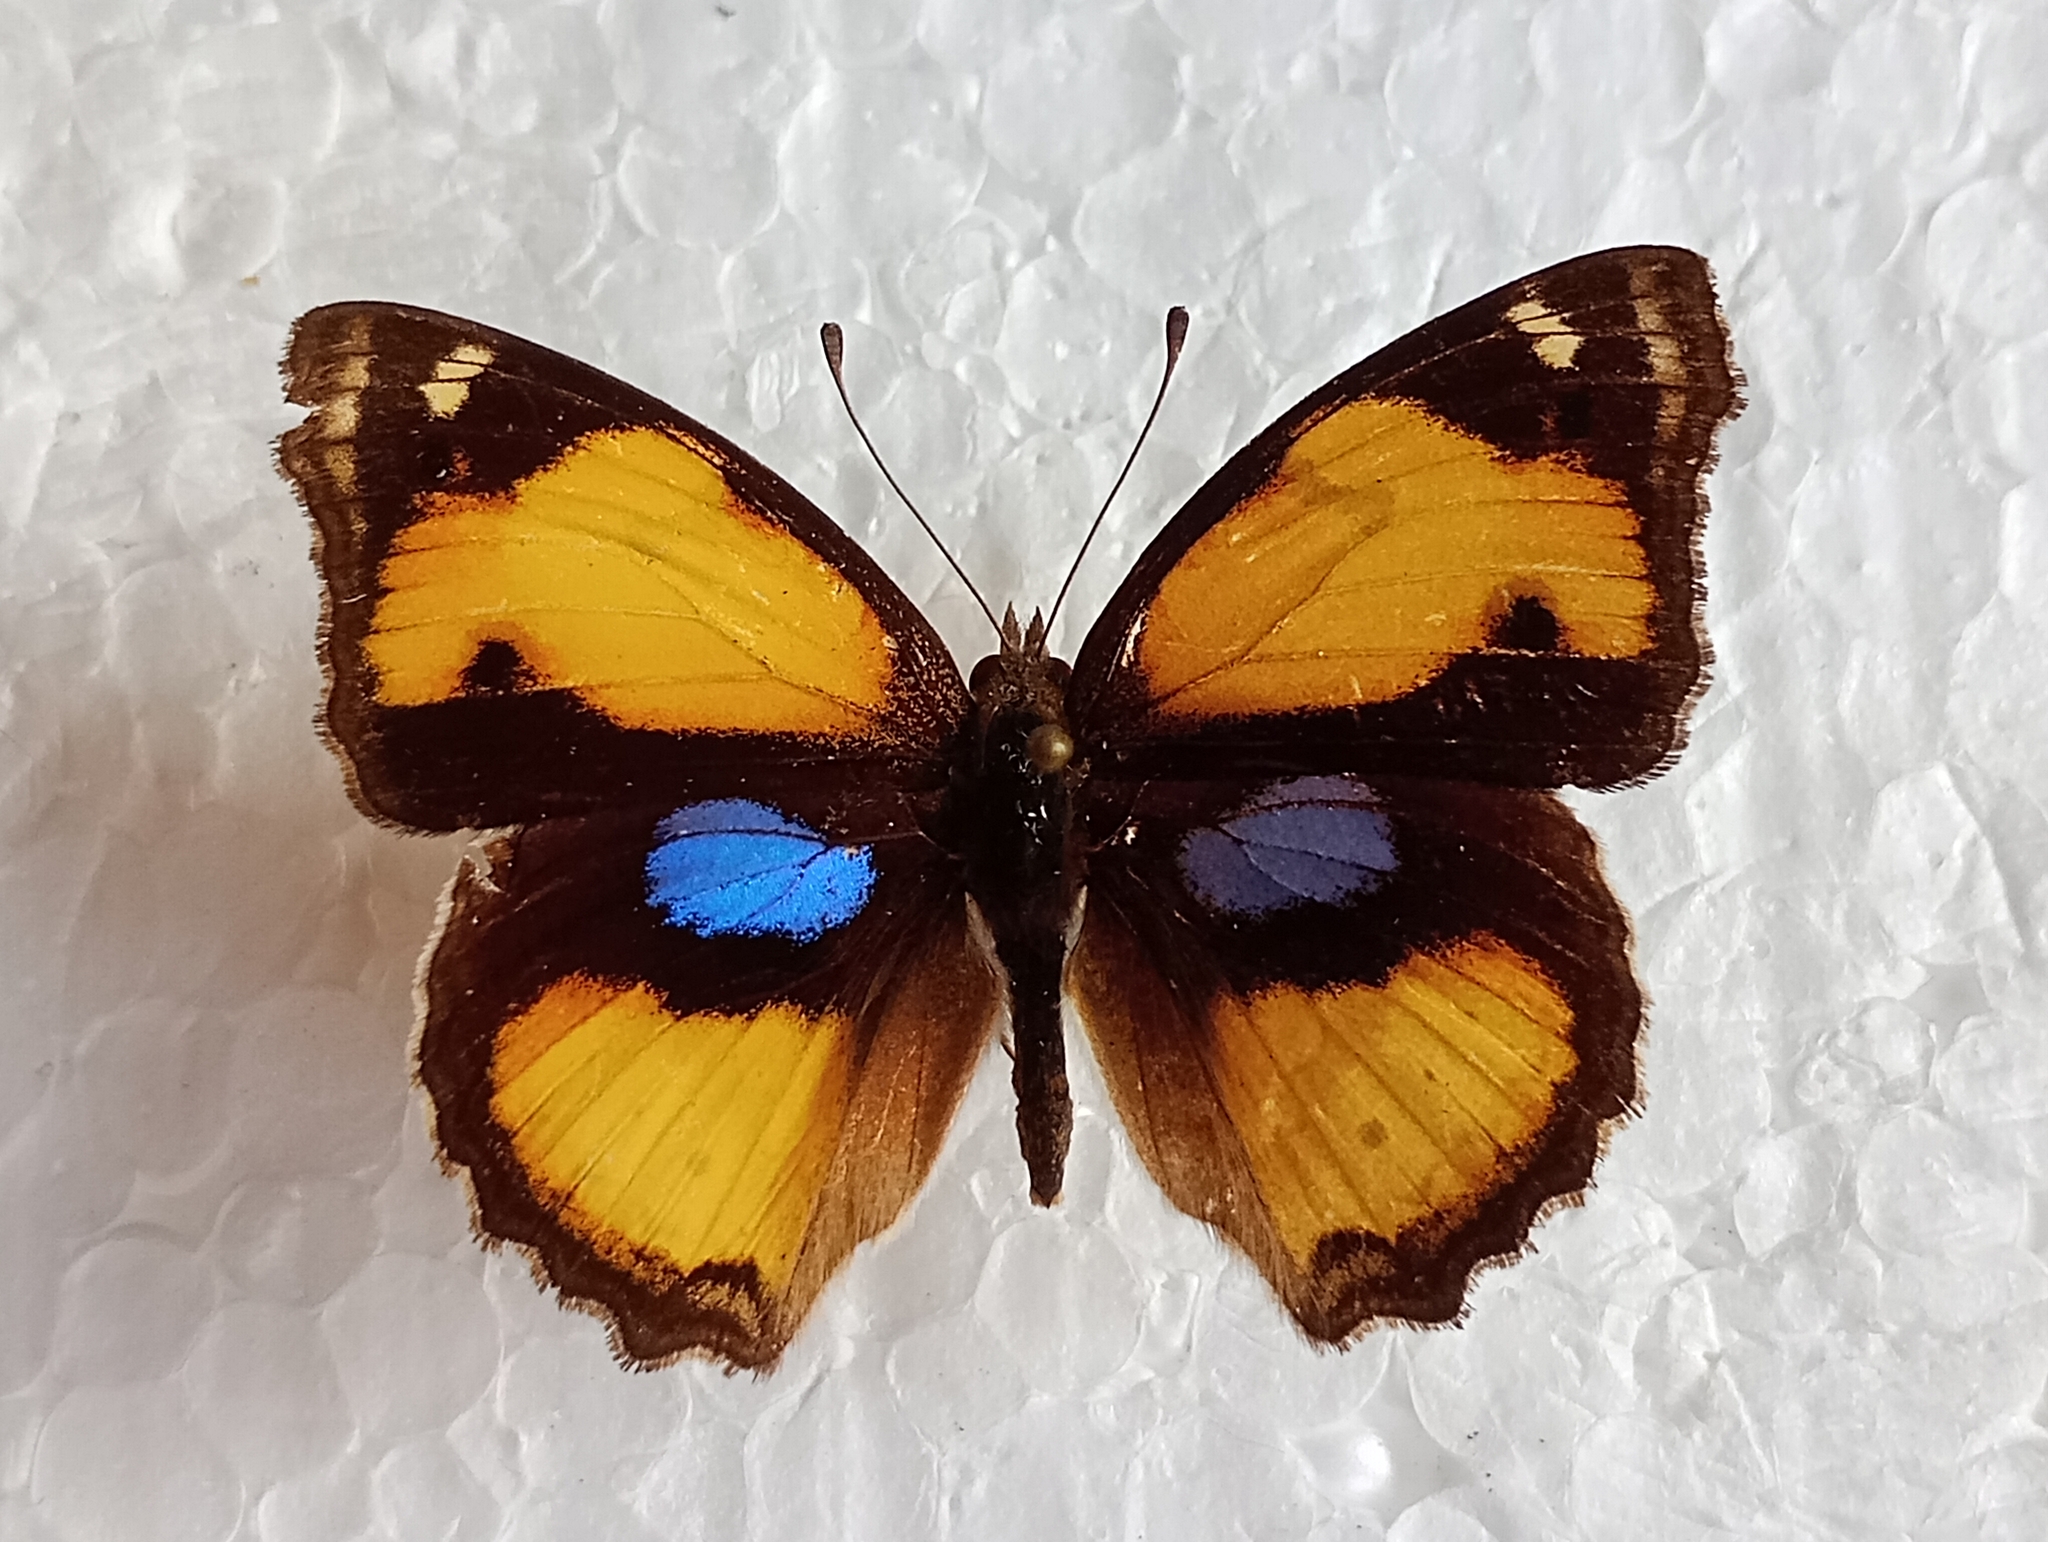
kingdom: Animalia
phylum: Arthropoda
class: Insecta
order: Lepidoptera
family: Nymphalidae
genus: Junonia
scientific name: Junonia hierta
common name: Yellow pansy
